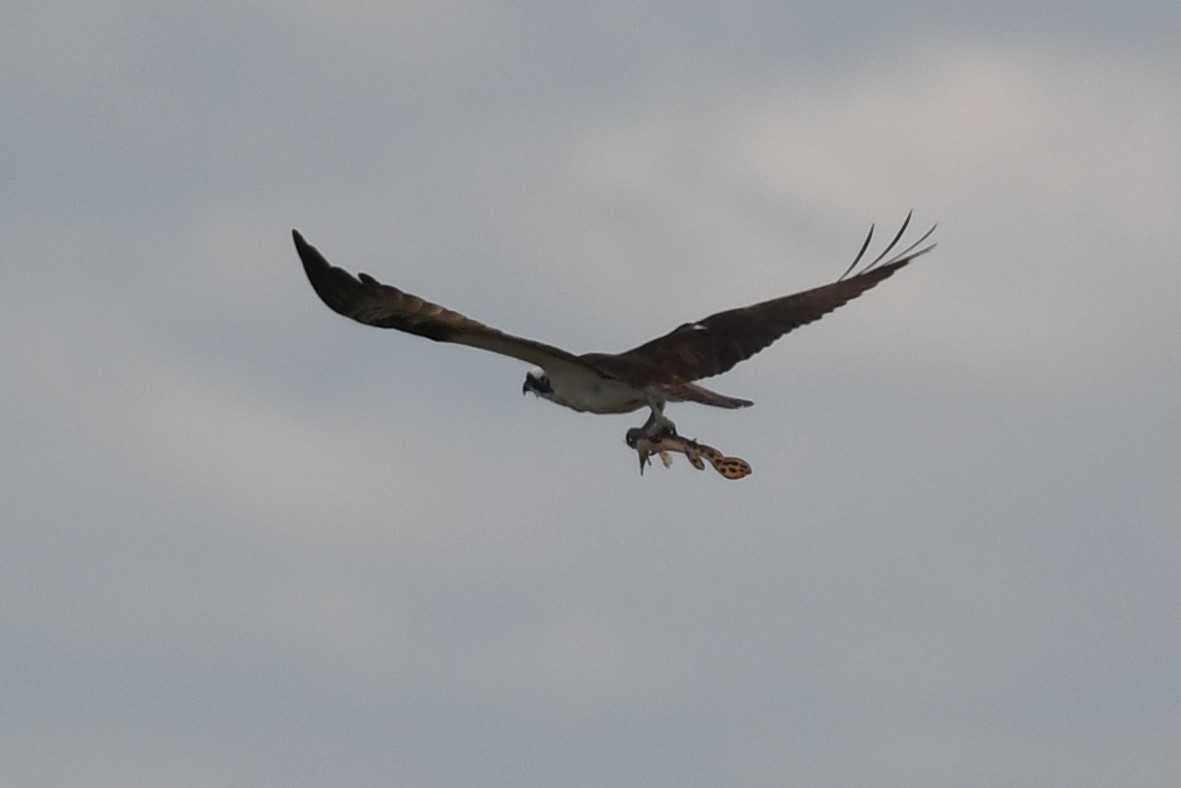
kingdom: Animalia
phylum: Chordata
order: Lepisosteiformes
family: Lepisosteidae
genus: Lepisosteus
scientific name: Lepisosteus osseus
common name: Longnose gar
